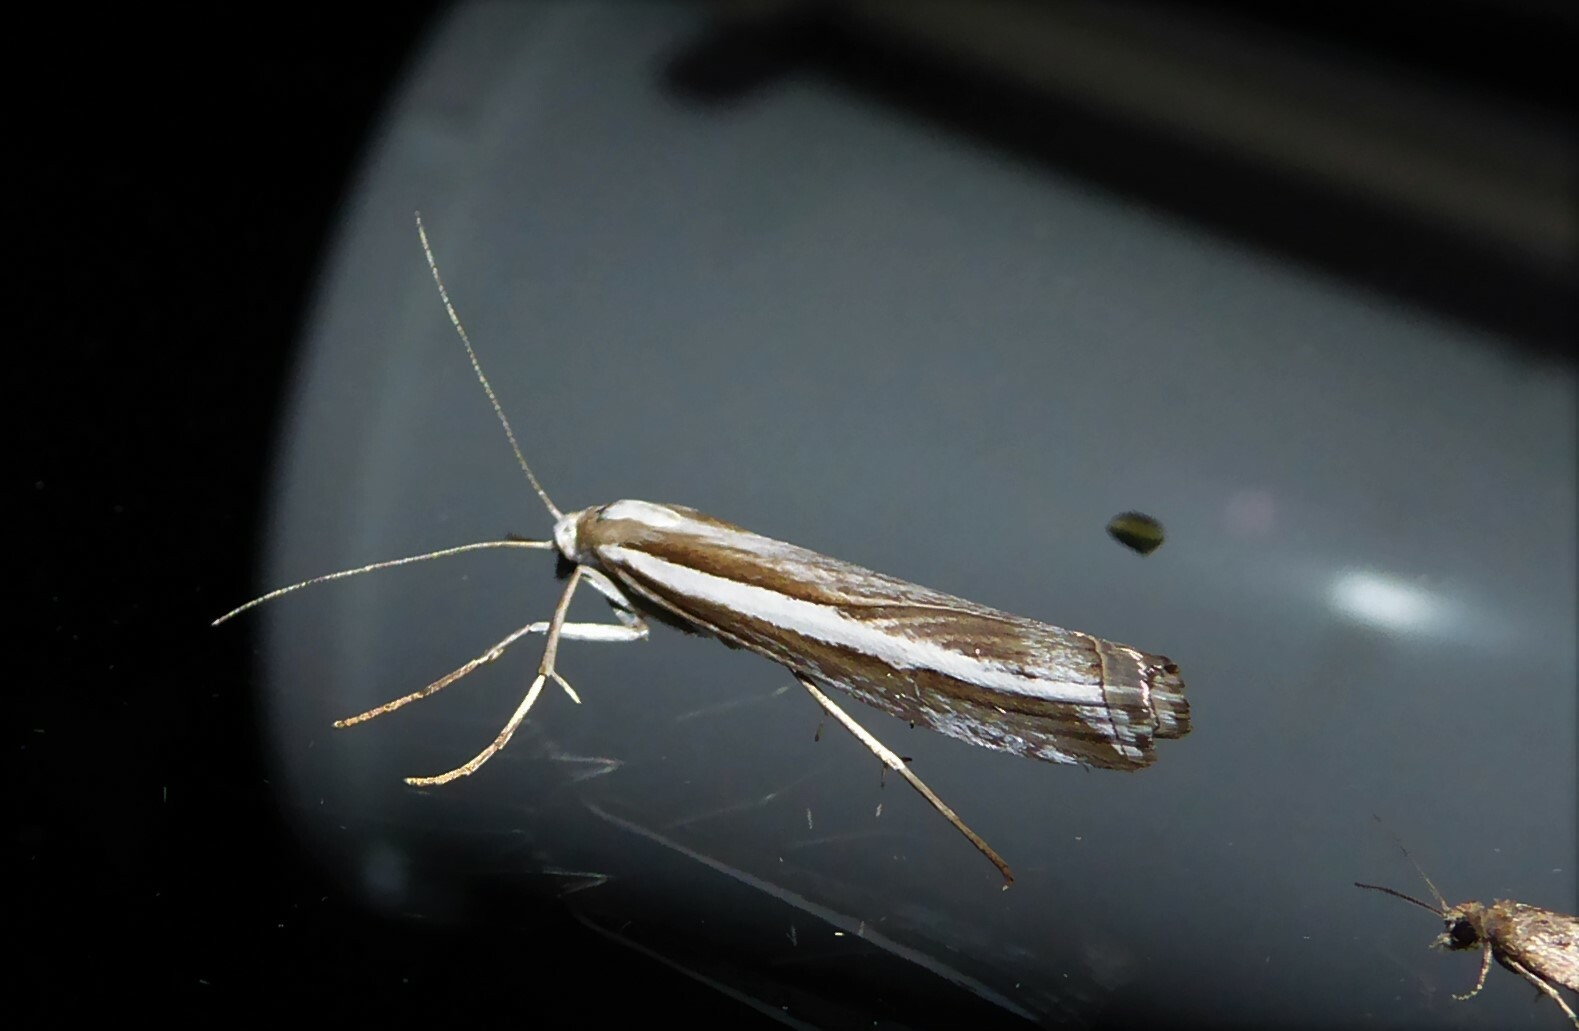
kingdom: Animalia
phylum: Arthropoda
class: Insecta
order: Lepidoptera
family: Crambidae
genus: Orocrambus
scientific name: Orocrambus vittellus
